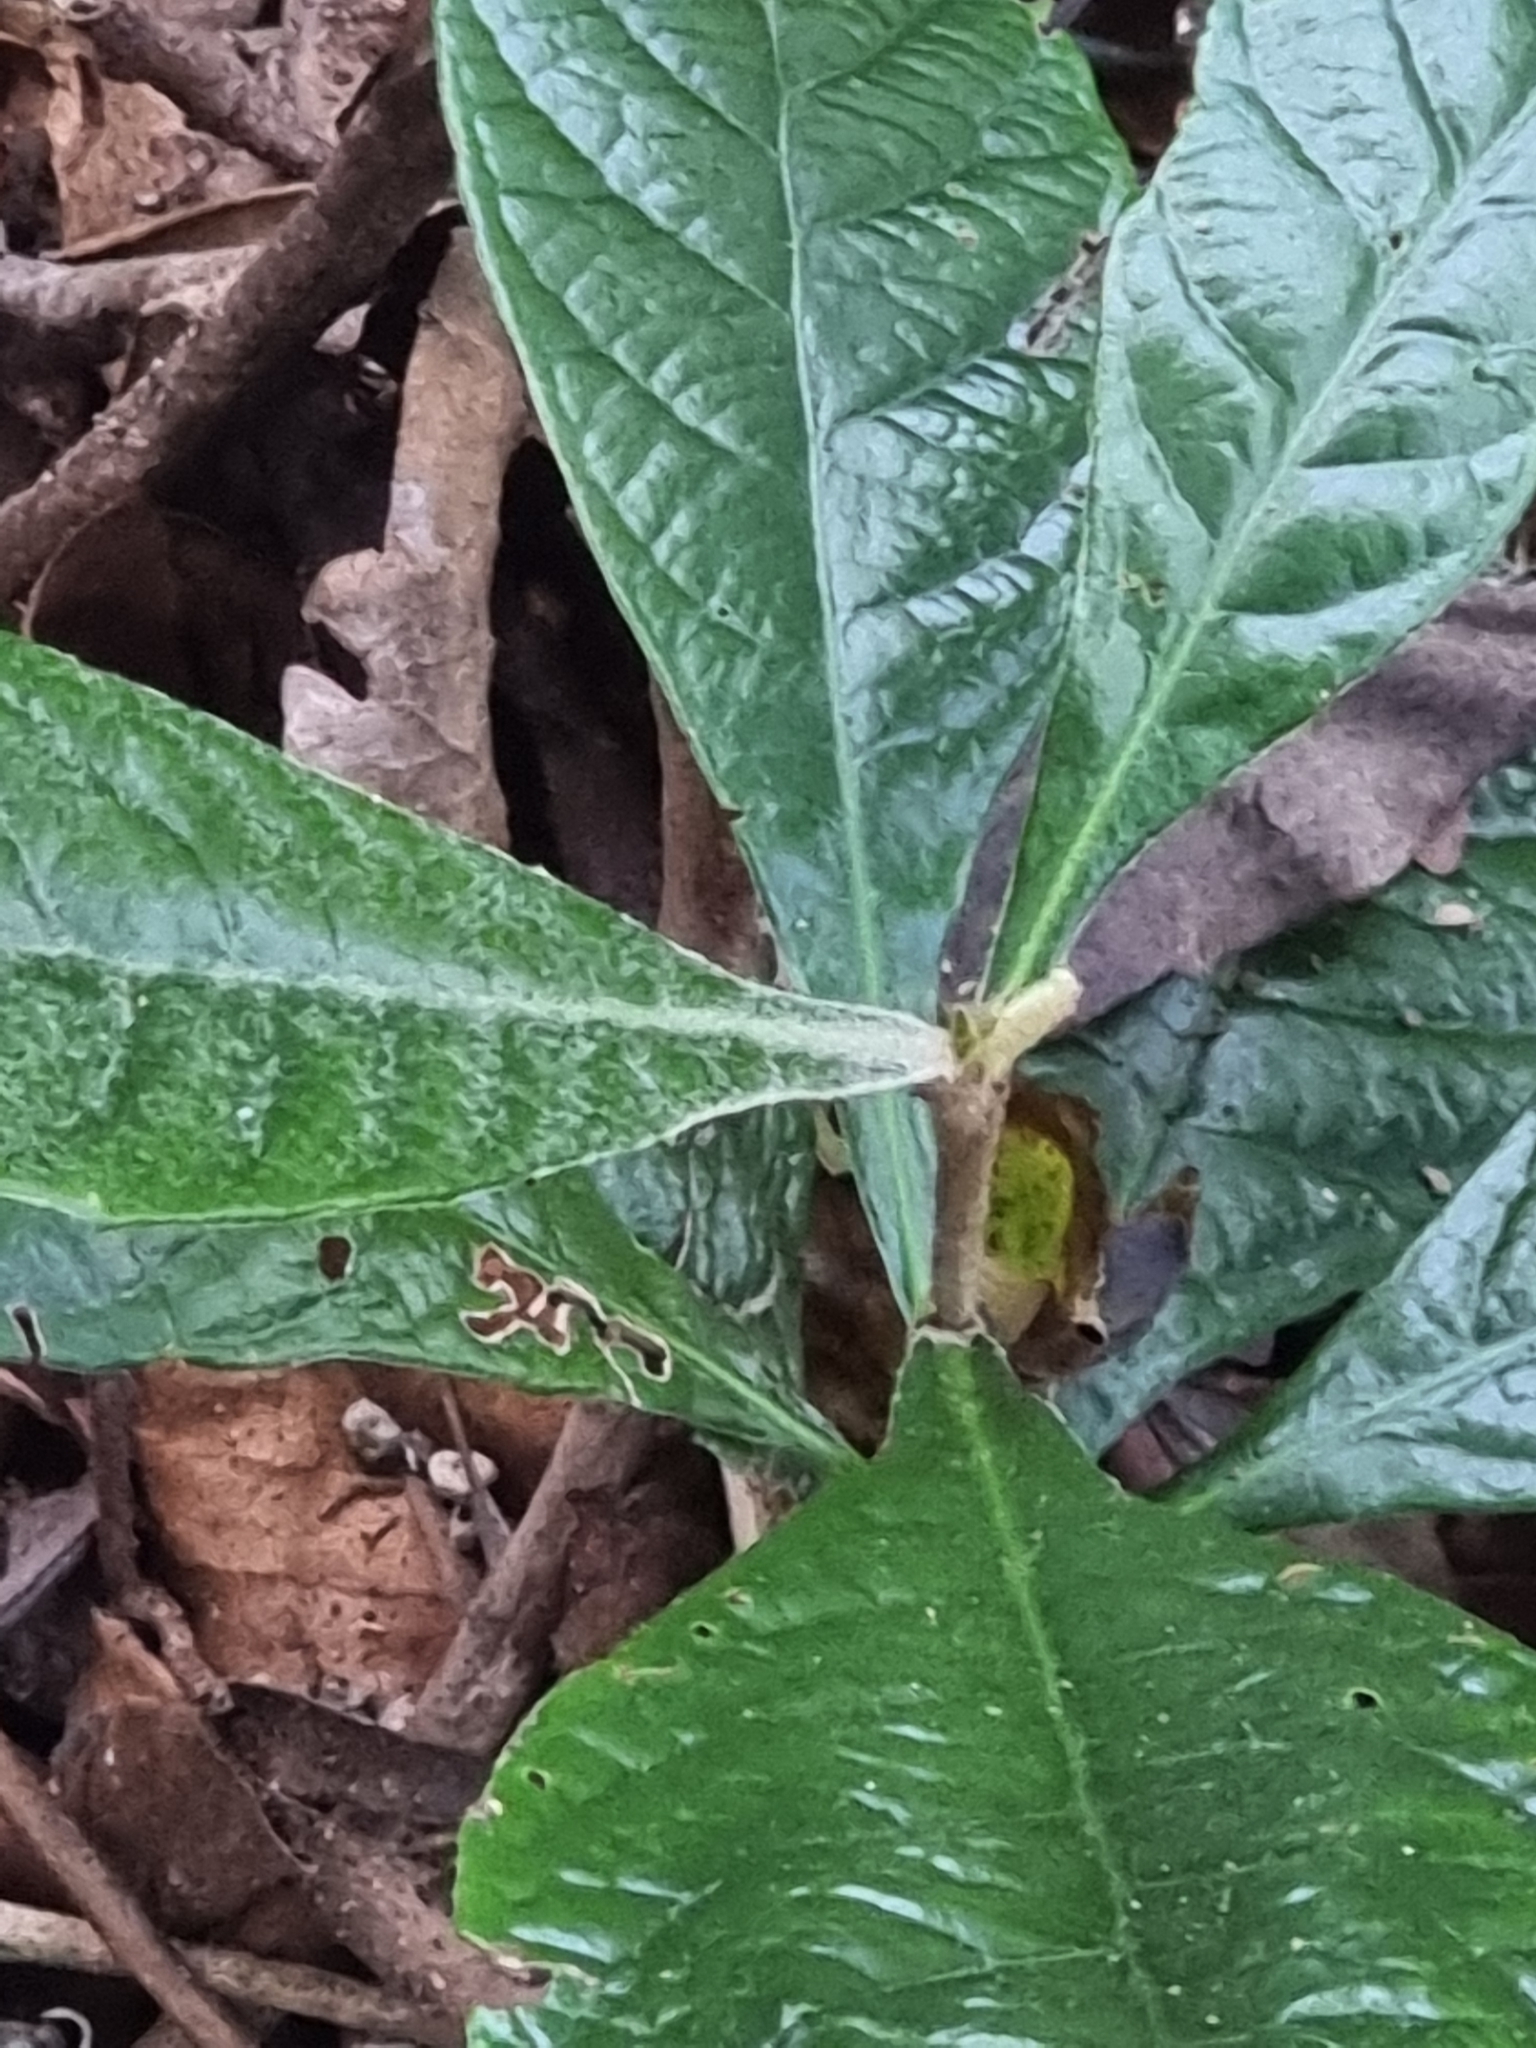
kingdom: Plantae
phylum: Tracheophyta
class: Magnoliopsida
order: Rosales
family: Rosaceae
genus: Rhaphiolepis
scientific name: Rhaphiolepis bibas
